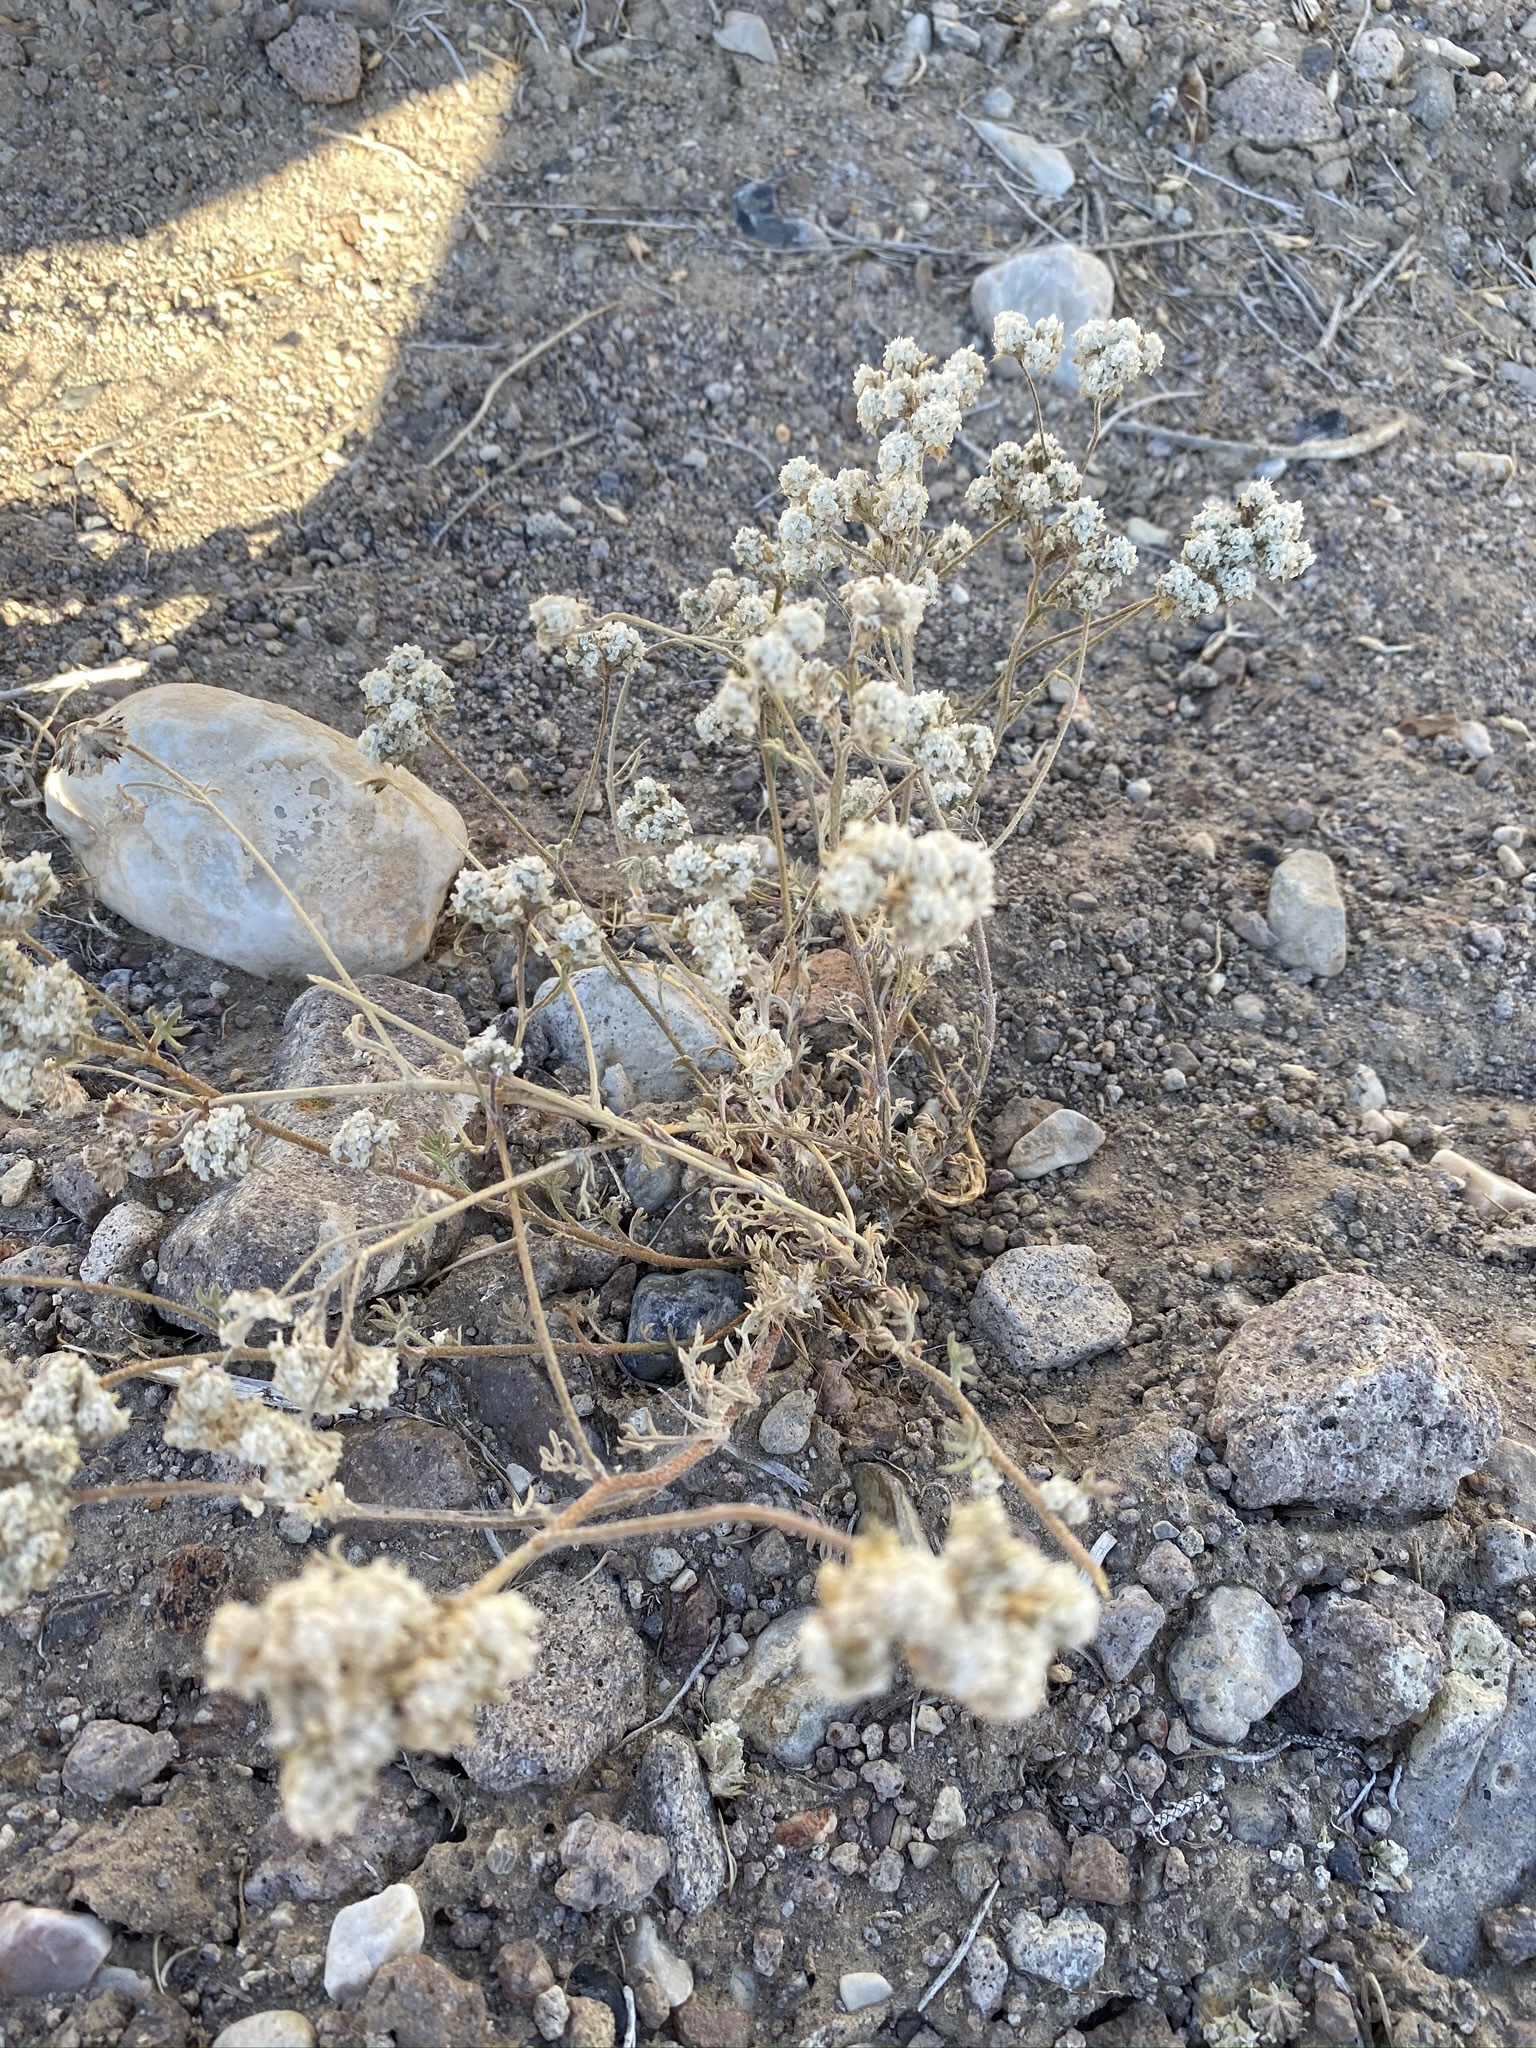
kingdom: Plantae
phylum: Tracheophyta
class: Magnoliopsida
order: Ericales
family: Polemoniaceae
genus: Ipomopsis
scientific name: Ipomopsis congesta
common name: Ball-head gilia
